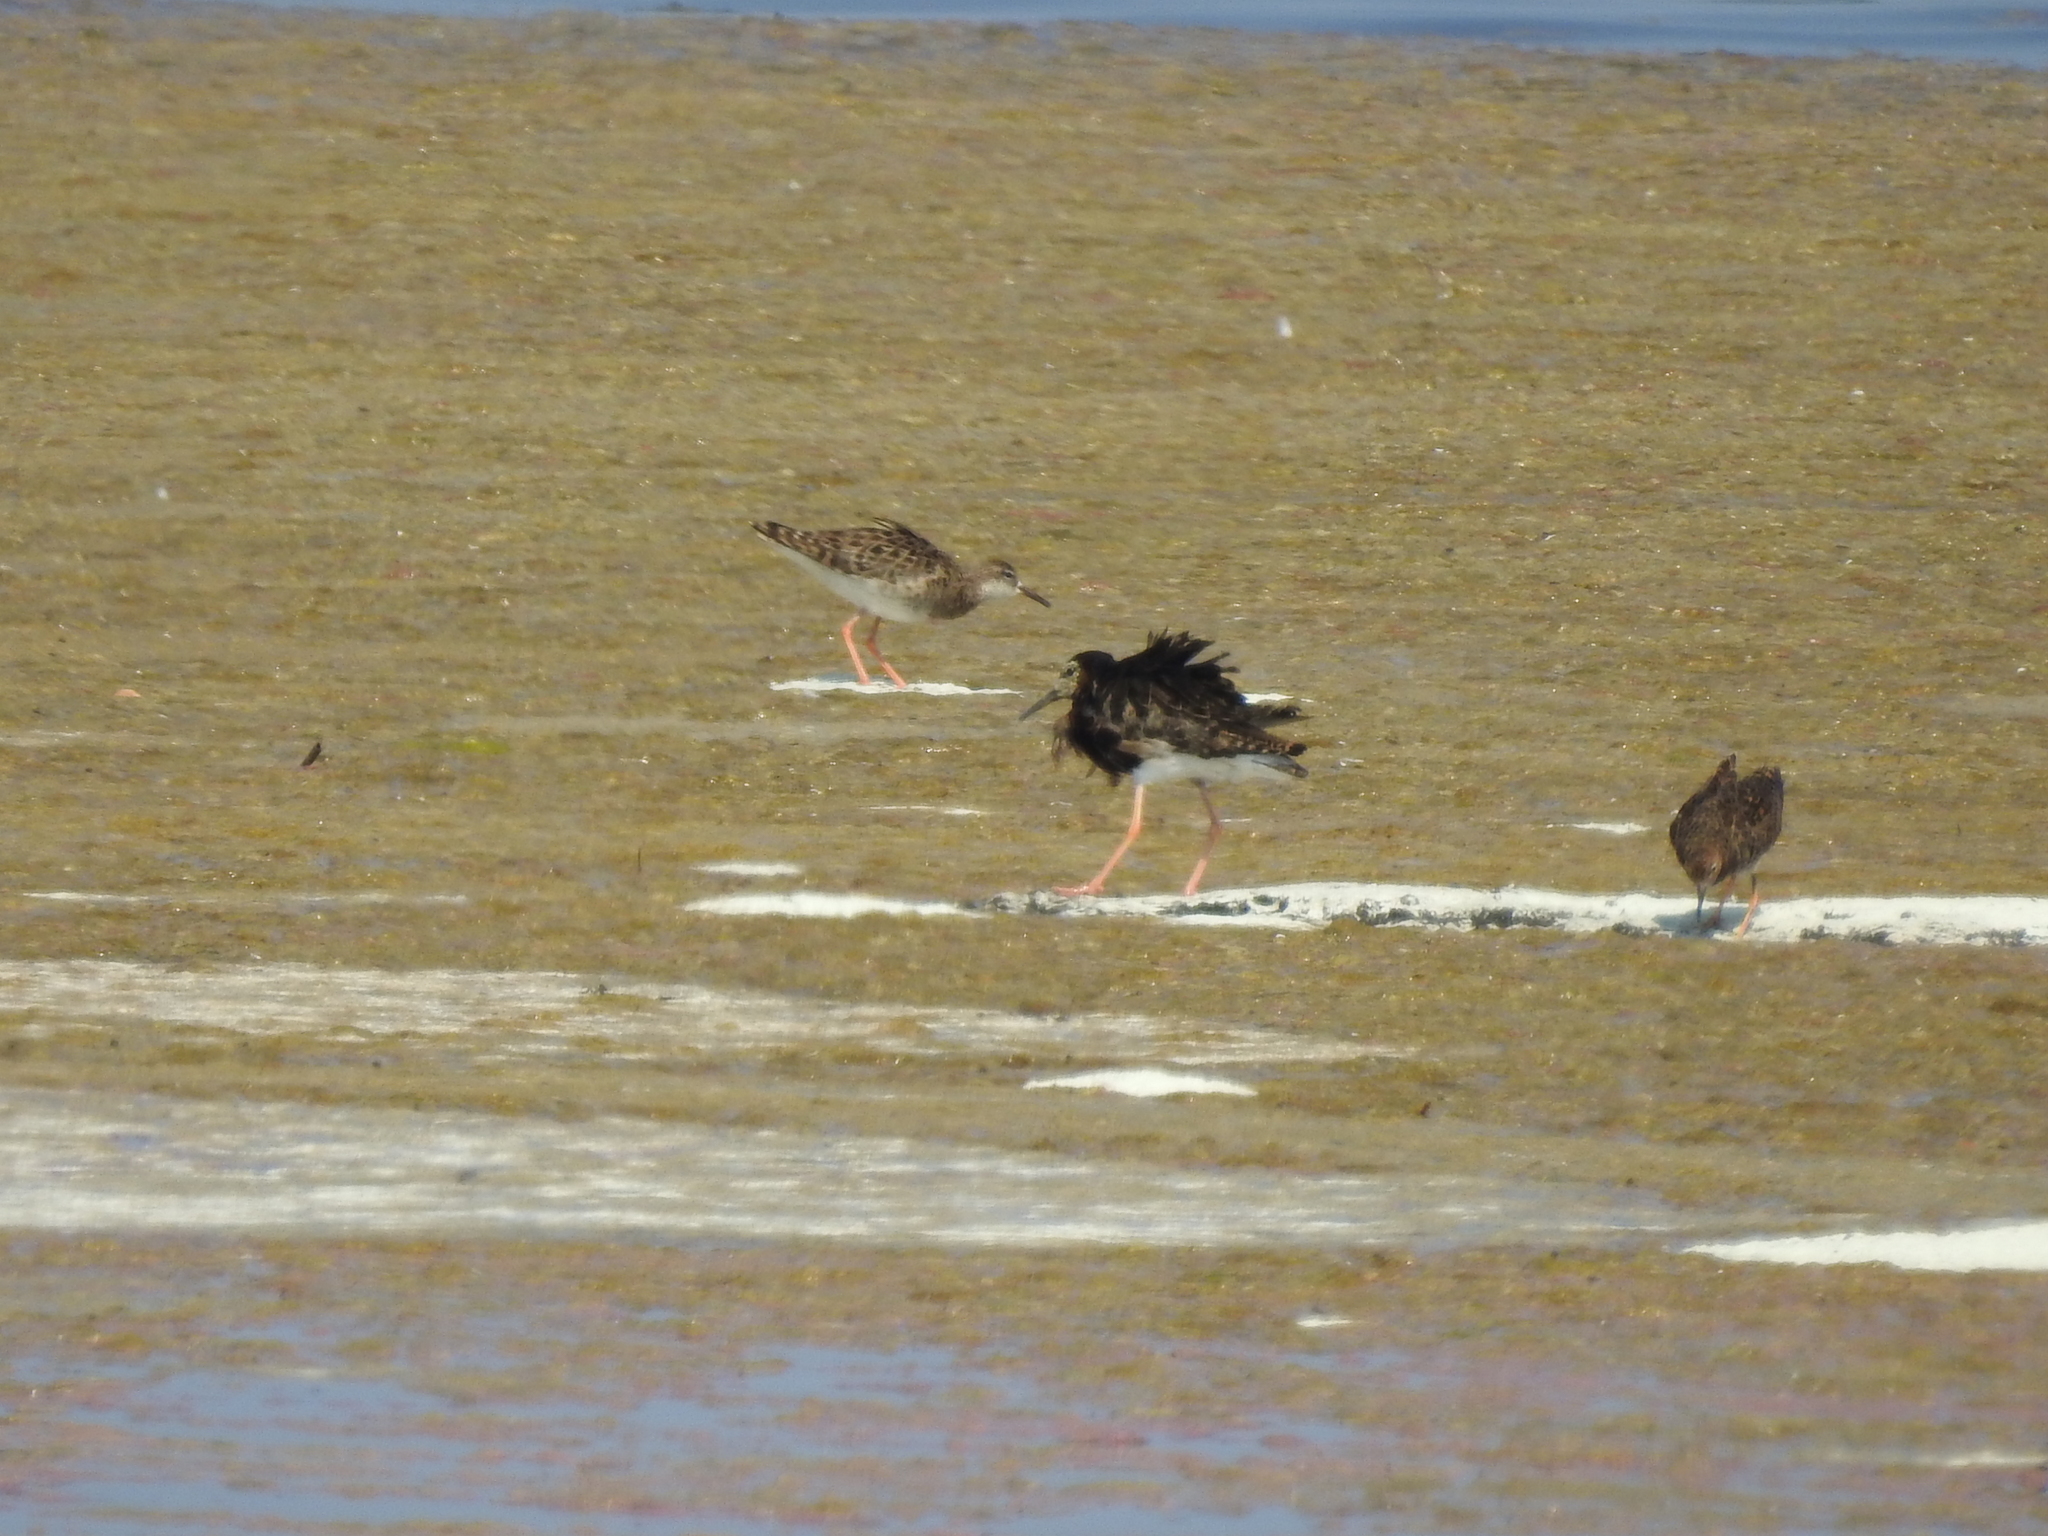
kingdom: Animalia
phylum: Chordata
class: Aves
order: Charadriiformes
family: Scolopacidae
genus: Calidris
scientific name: Calidris pugnax
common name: Ruff
